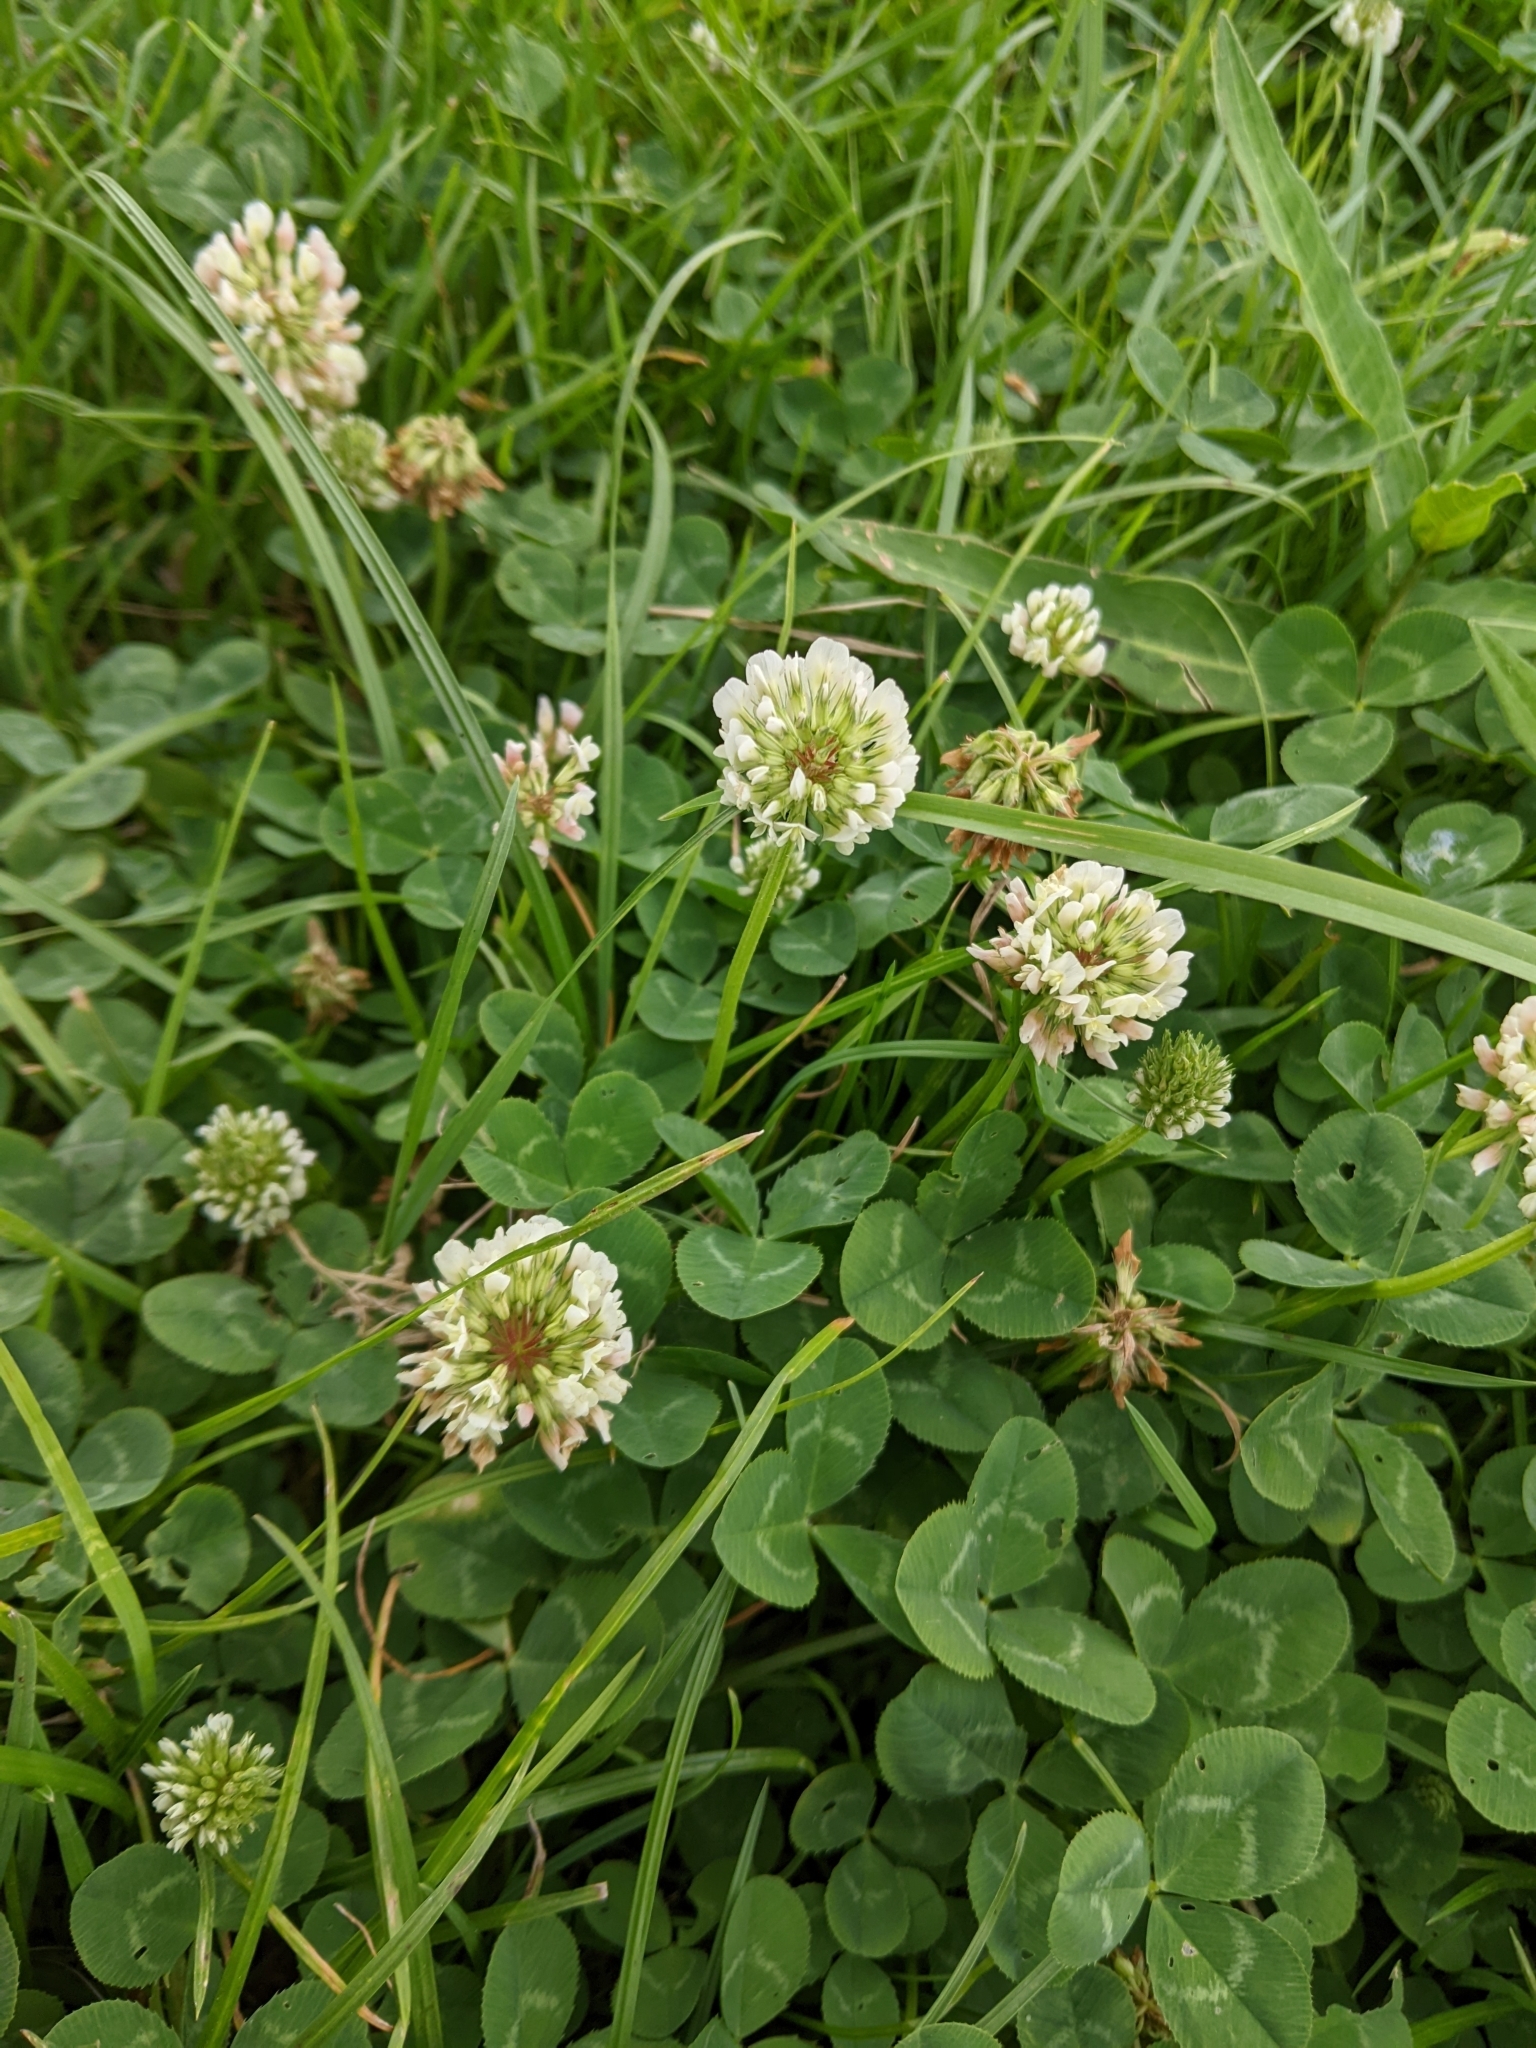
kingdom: Plantae
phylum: Tracheophyta
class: Magnoliopsida
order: Fabales
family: Fabaceae
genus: Trifolium
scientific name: Trifolium repens
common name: White clover
